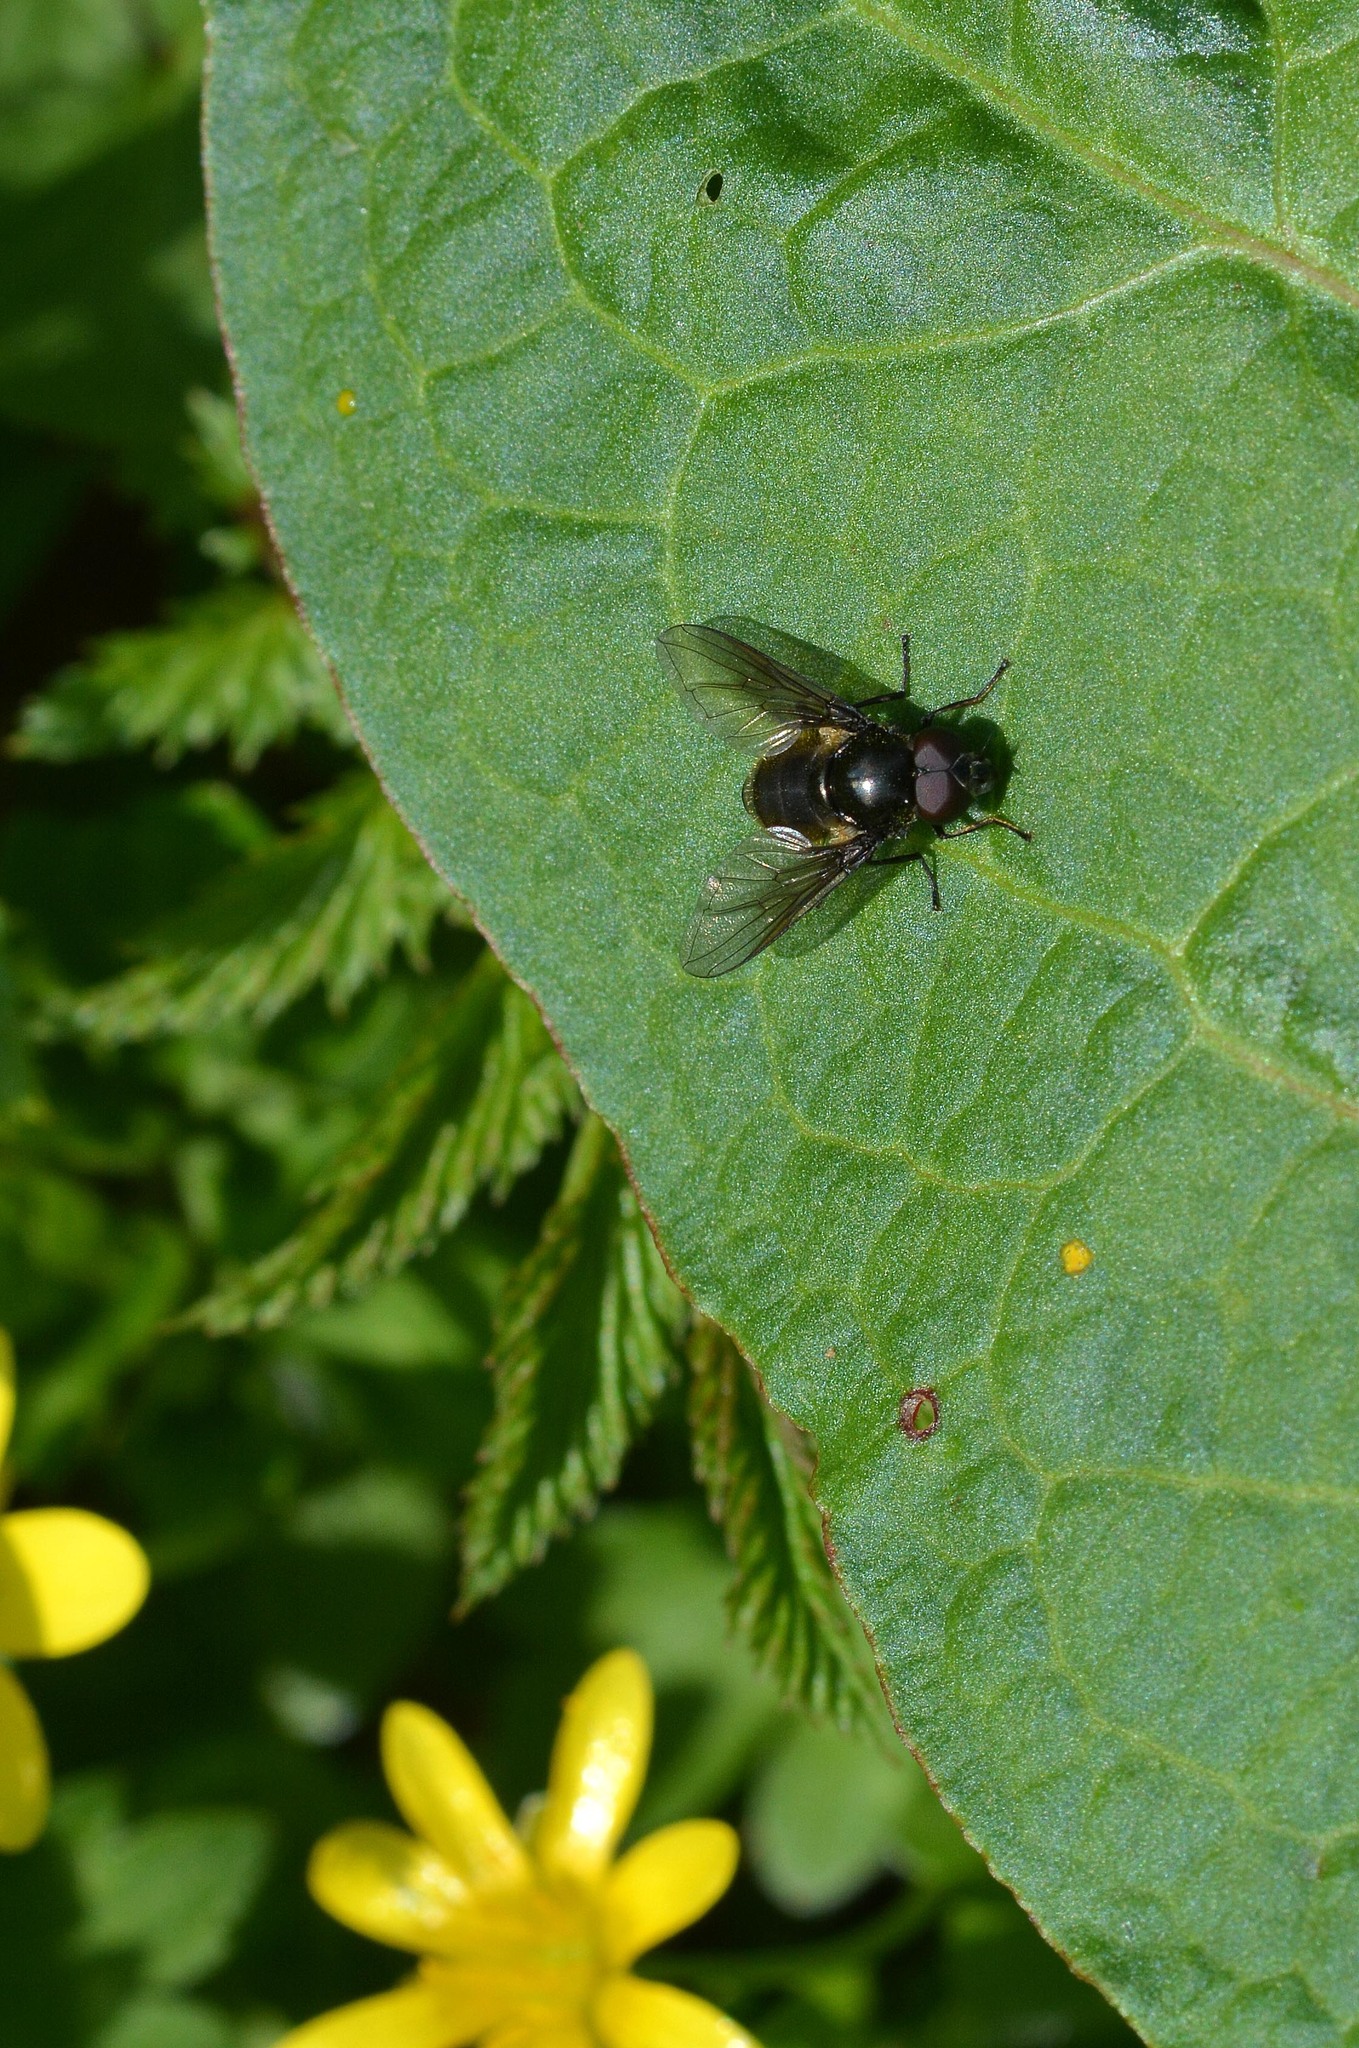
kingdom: Animalia
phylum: Arthropoda
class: Insecta
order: Diptera
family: Syrphidae
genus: Cheilosia
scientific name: Cheilosia
